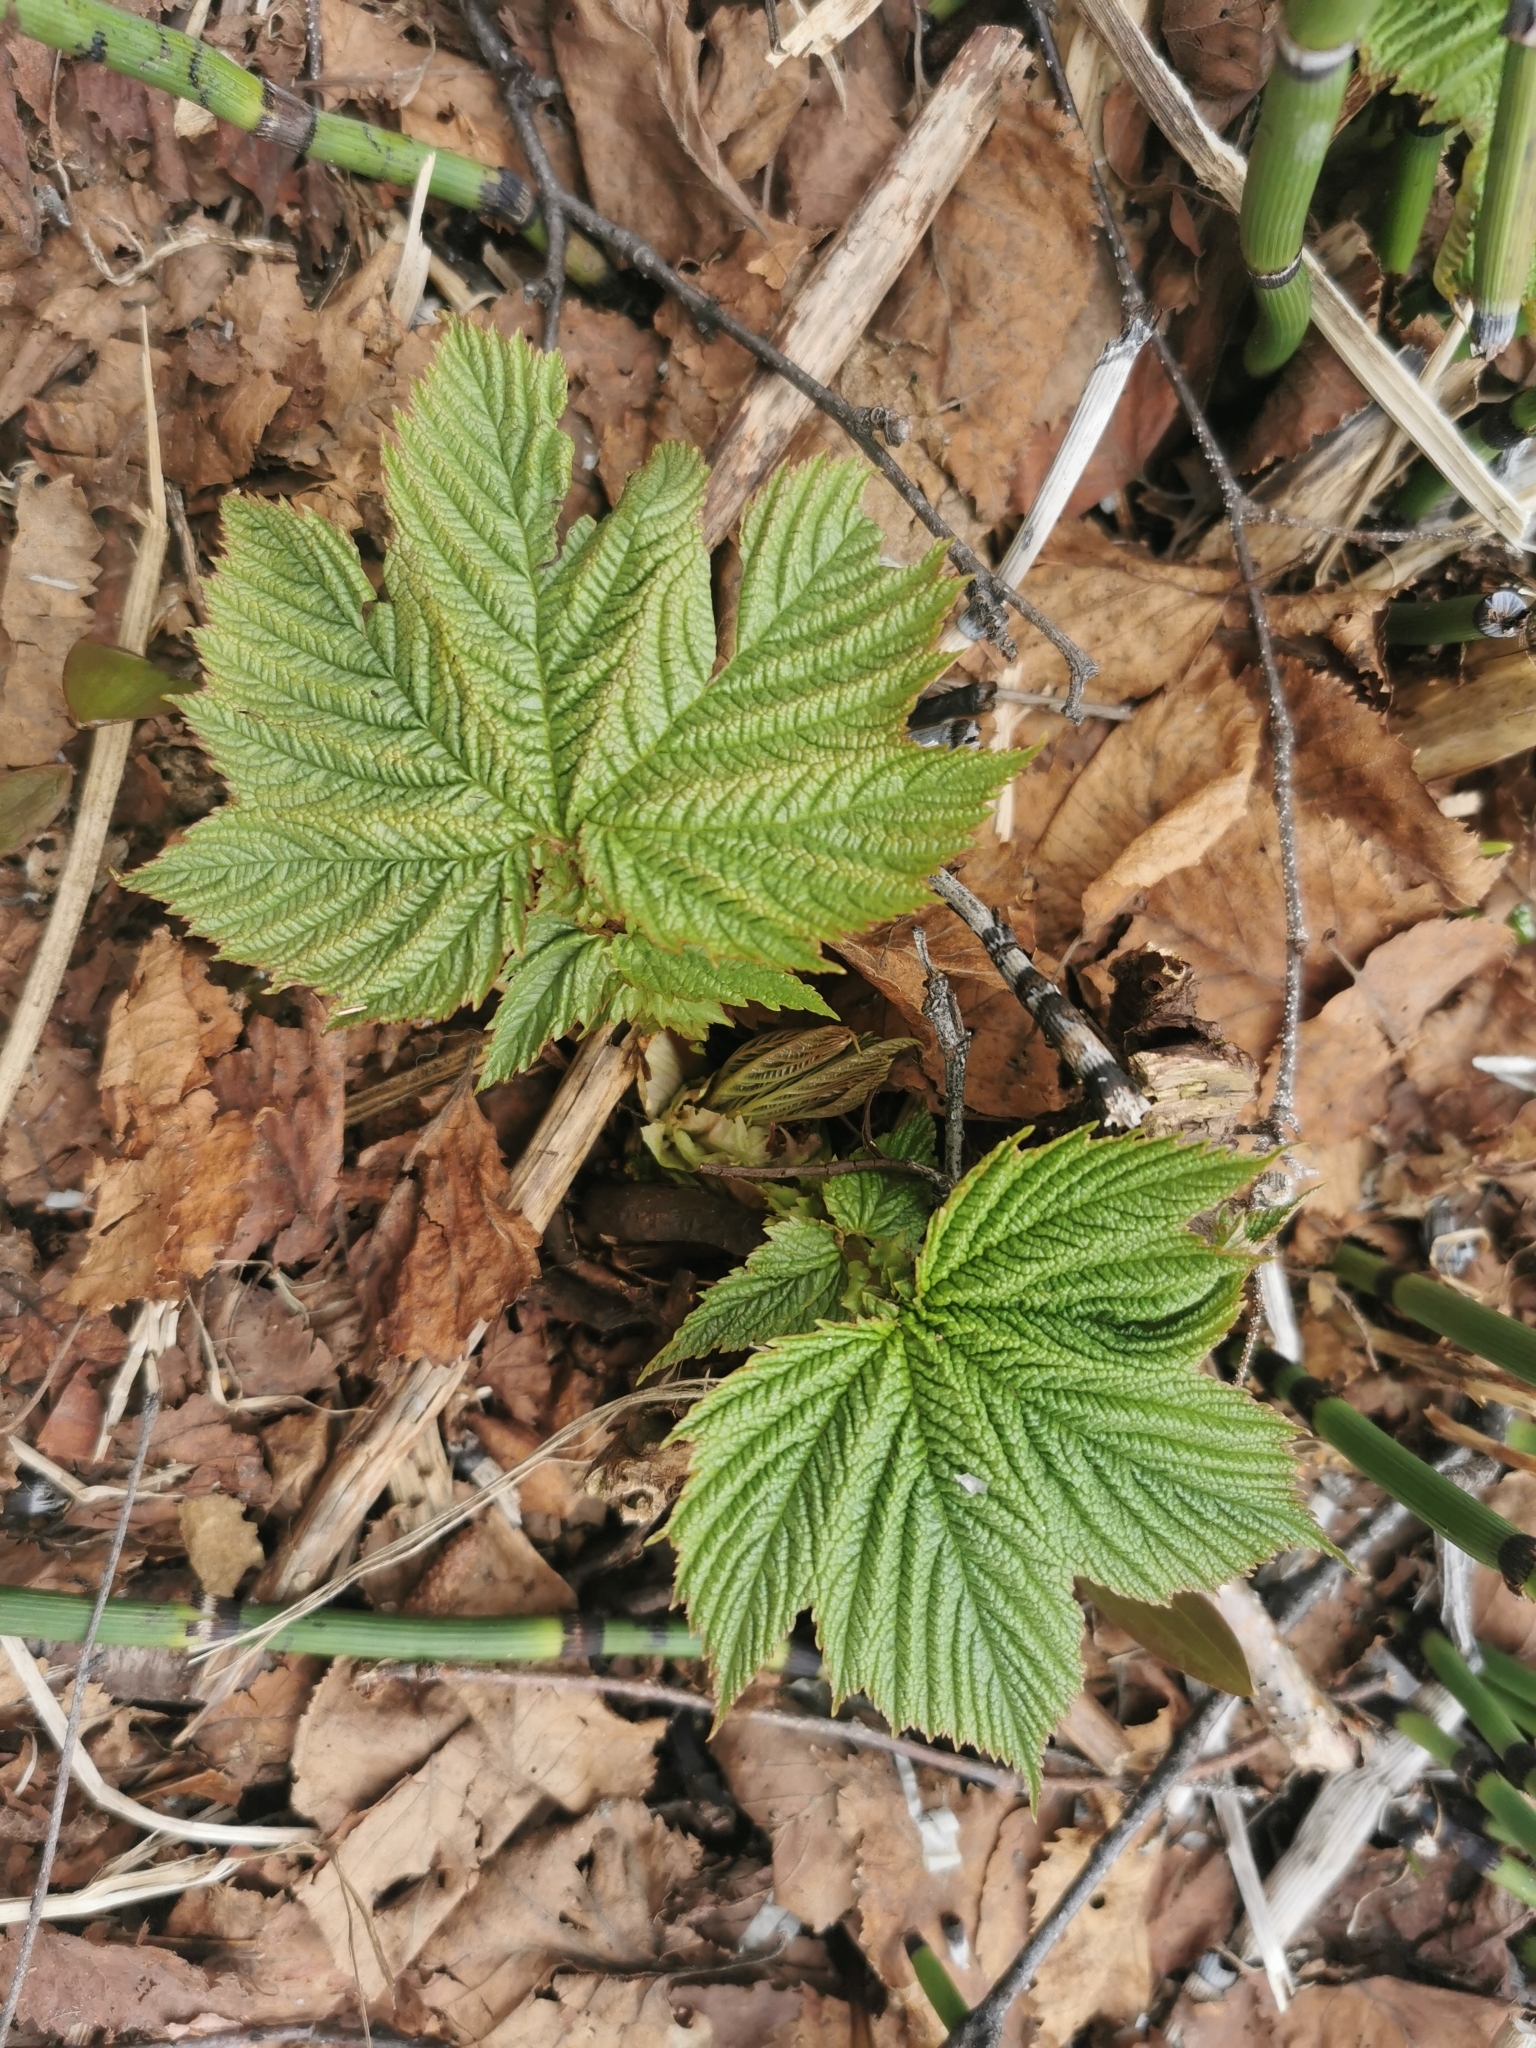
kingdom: Plantae
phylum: Tracheophyta
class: Magnoliopsida
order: Rosales
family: Rosaceae
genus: Filipendula
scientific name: Filipendula camtschatica
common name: Giant meadowsweet
